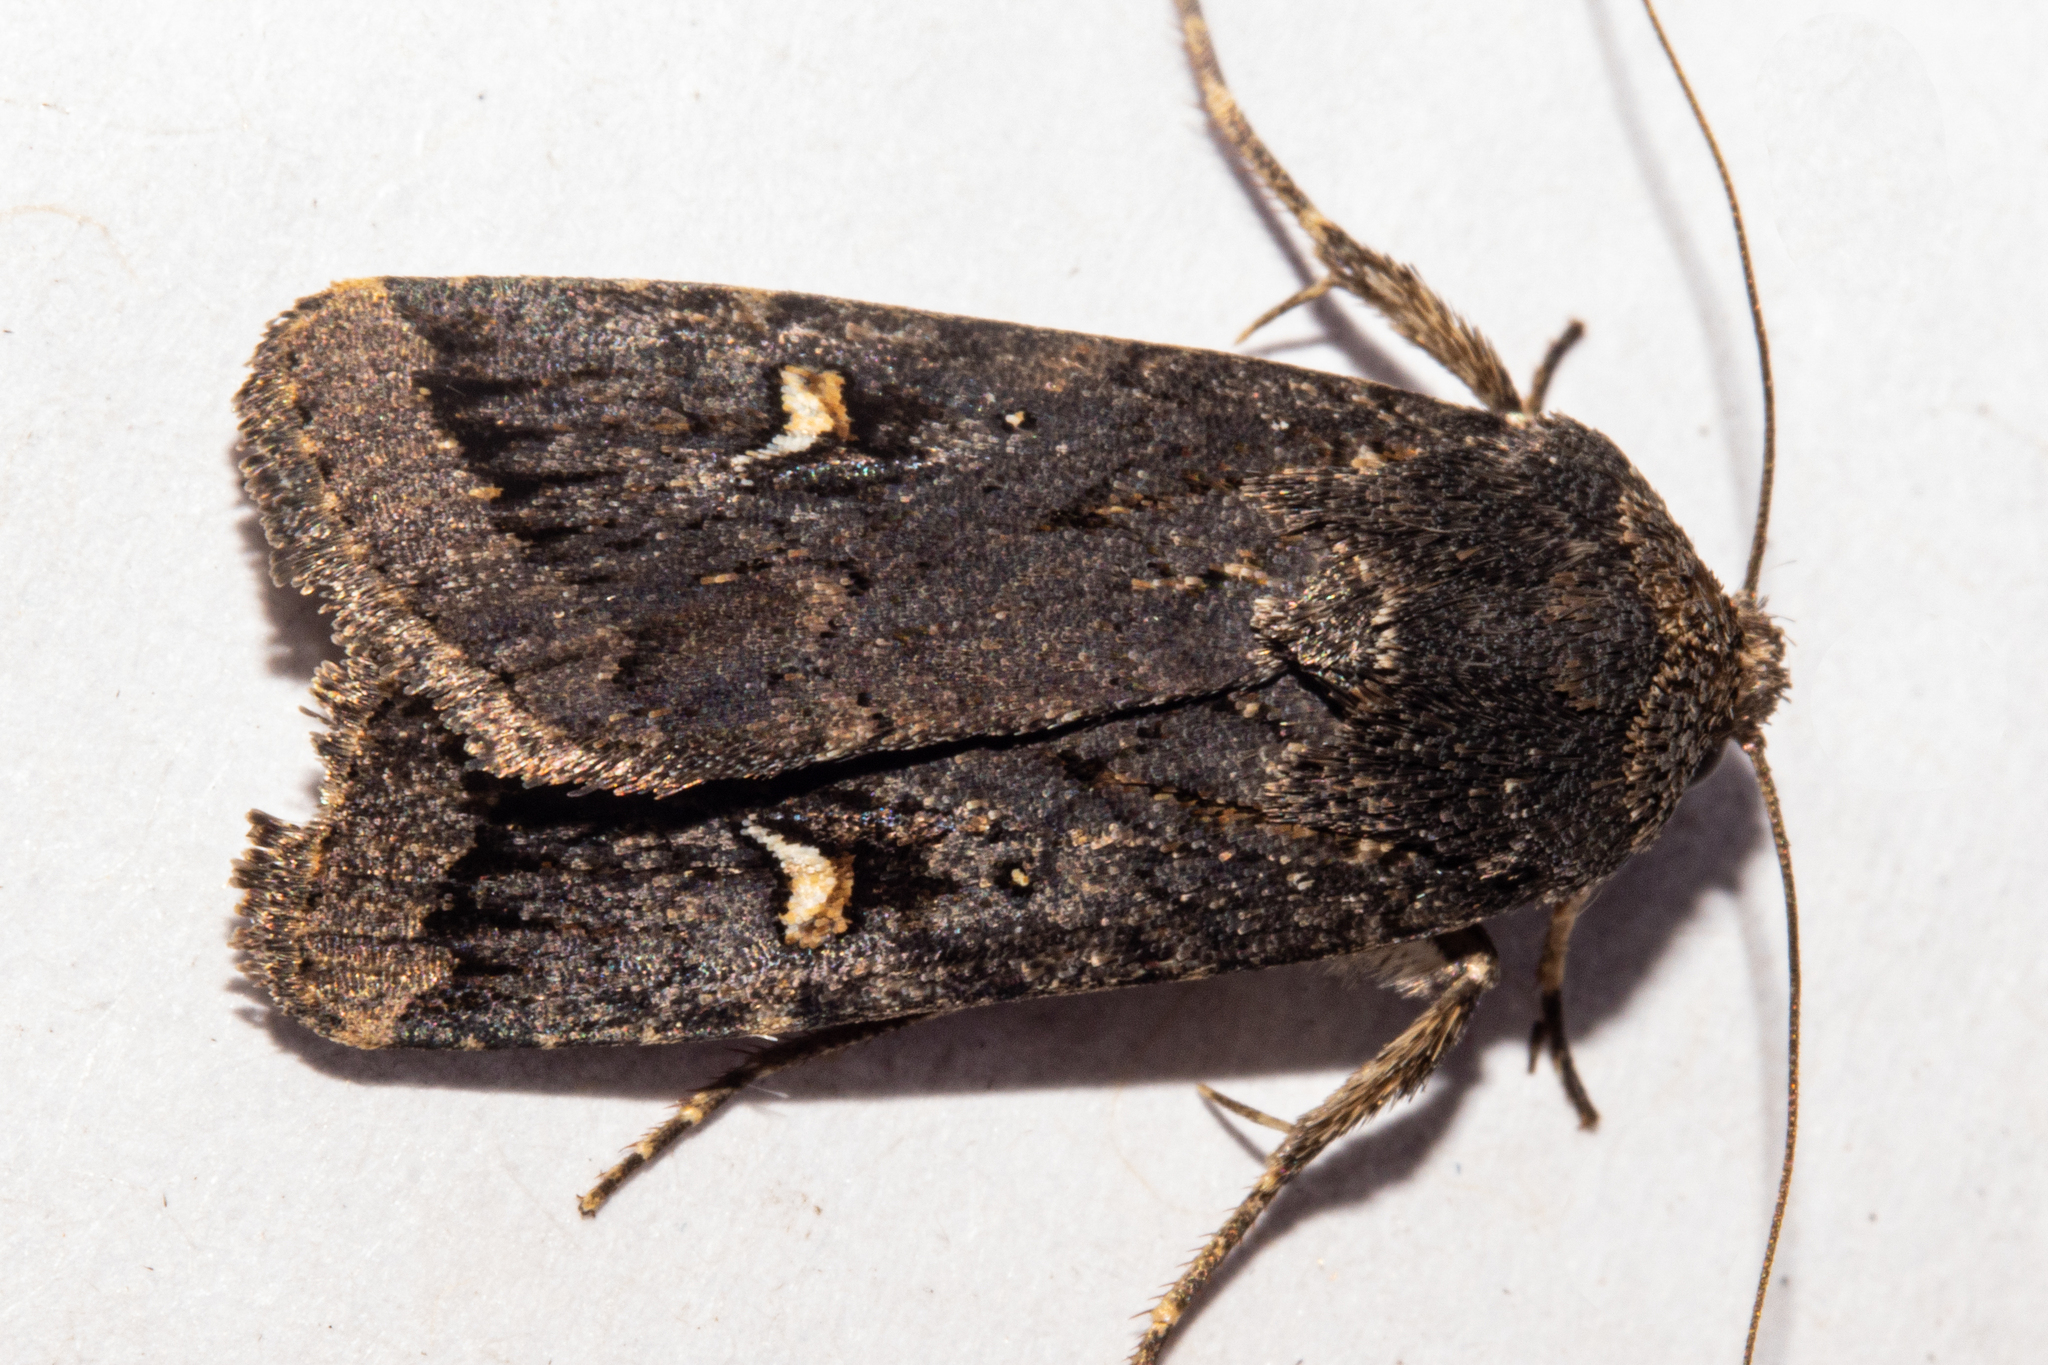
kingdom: Animalia
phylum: Arthropoda
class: Insecta
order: Lepidoptera
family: Noctuidae
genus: Proteuxoa
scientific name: Proteuxoa comma
